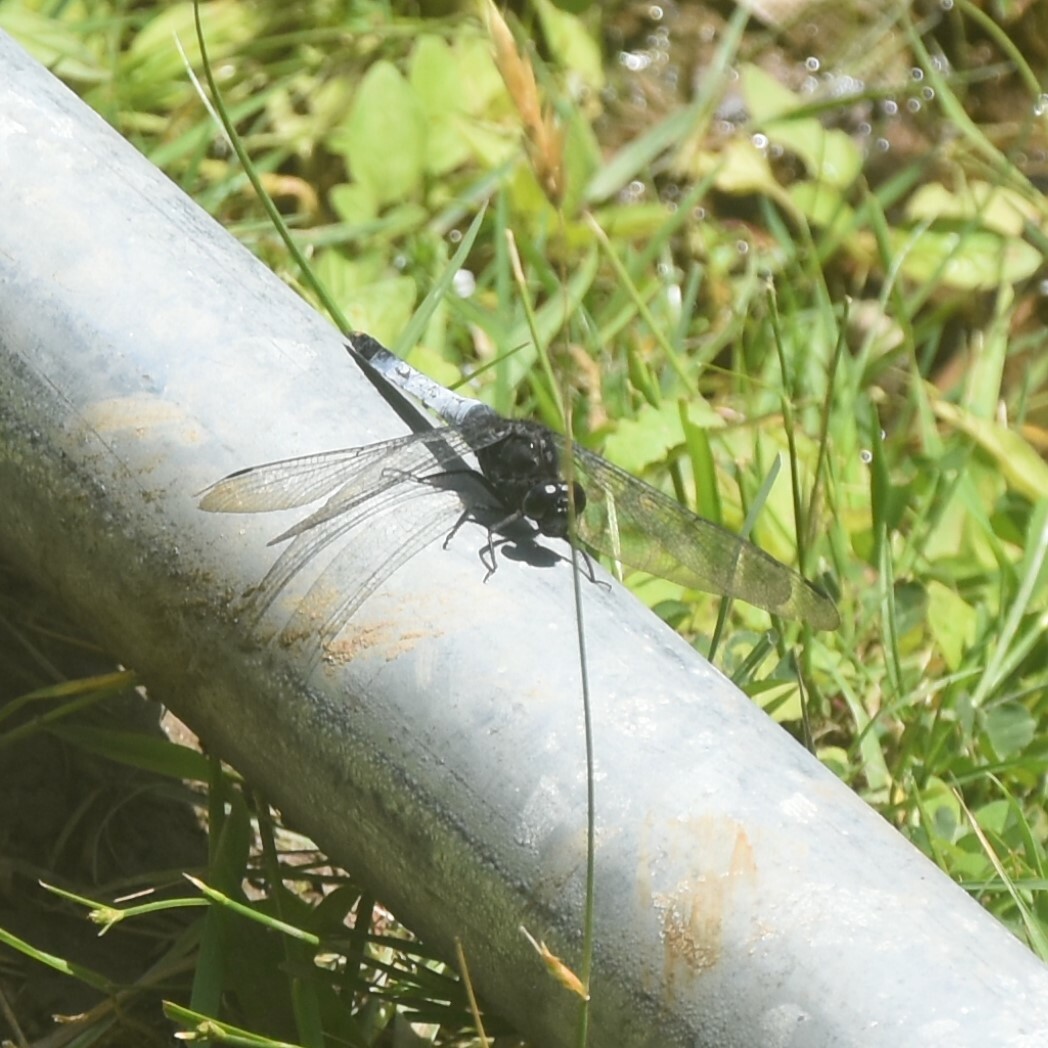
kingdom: Animalia
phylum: Arthropoda
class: Insecta
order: Odonata
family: Libellulidae
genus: Orthetrum
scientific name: Orthetrum triangulare
